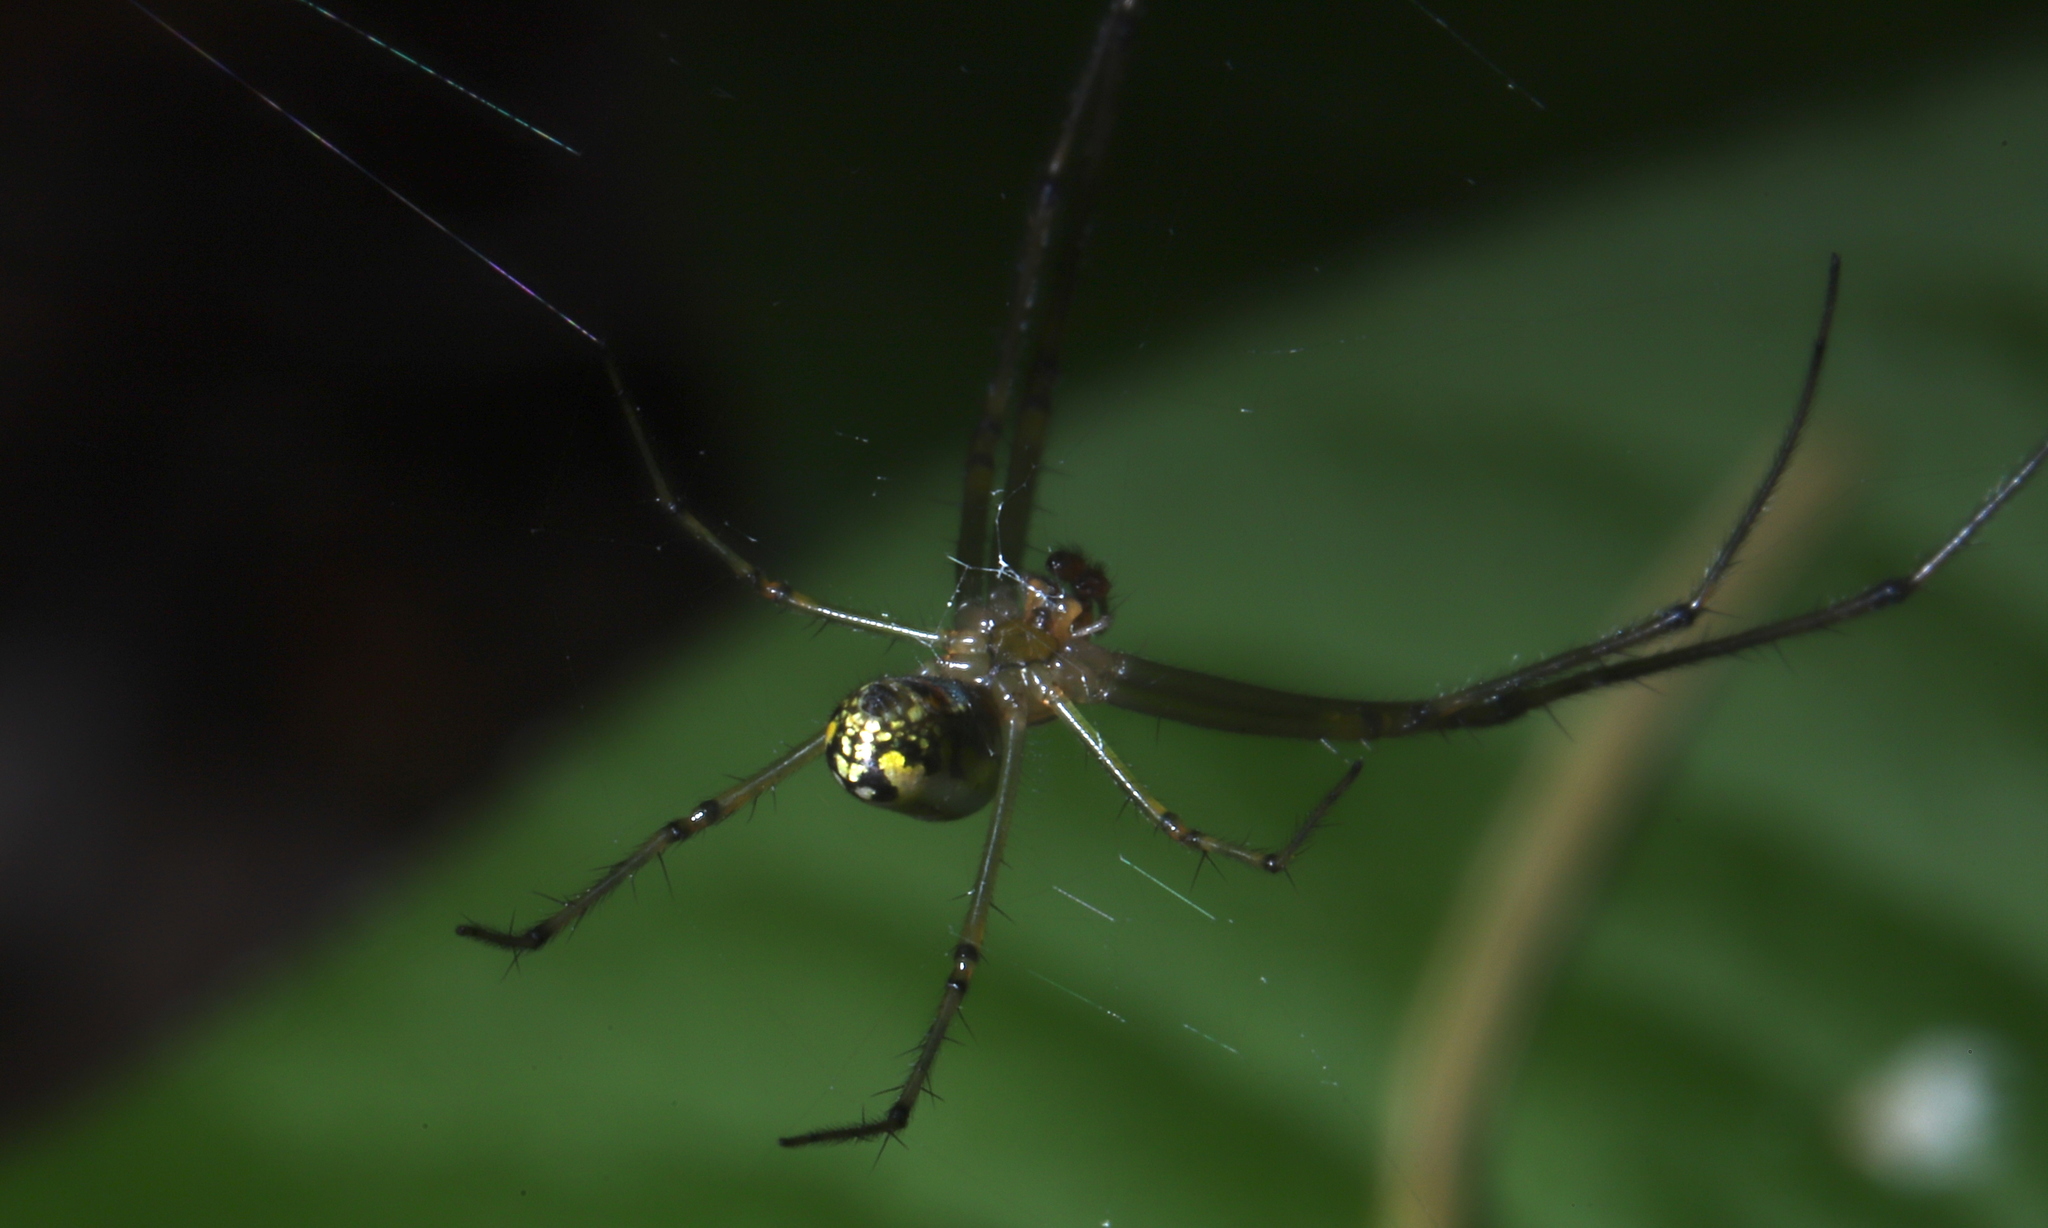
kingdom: Animalia
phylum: Arthropoda
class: Arachnida
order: Araneae
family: Tetragnathidae
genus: Leucauge
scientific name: Leucauge venusta
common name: Longjawed orb weavers
